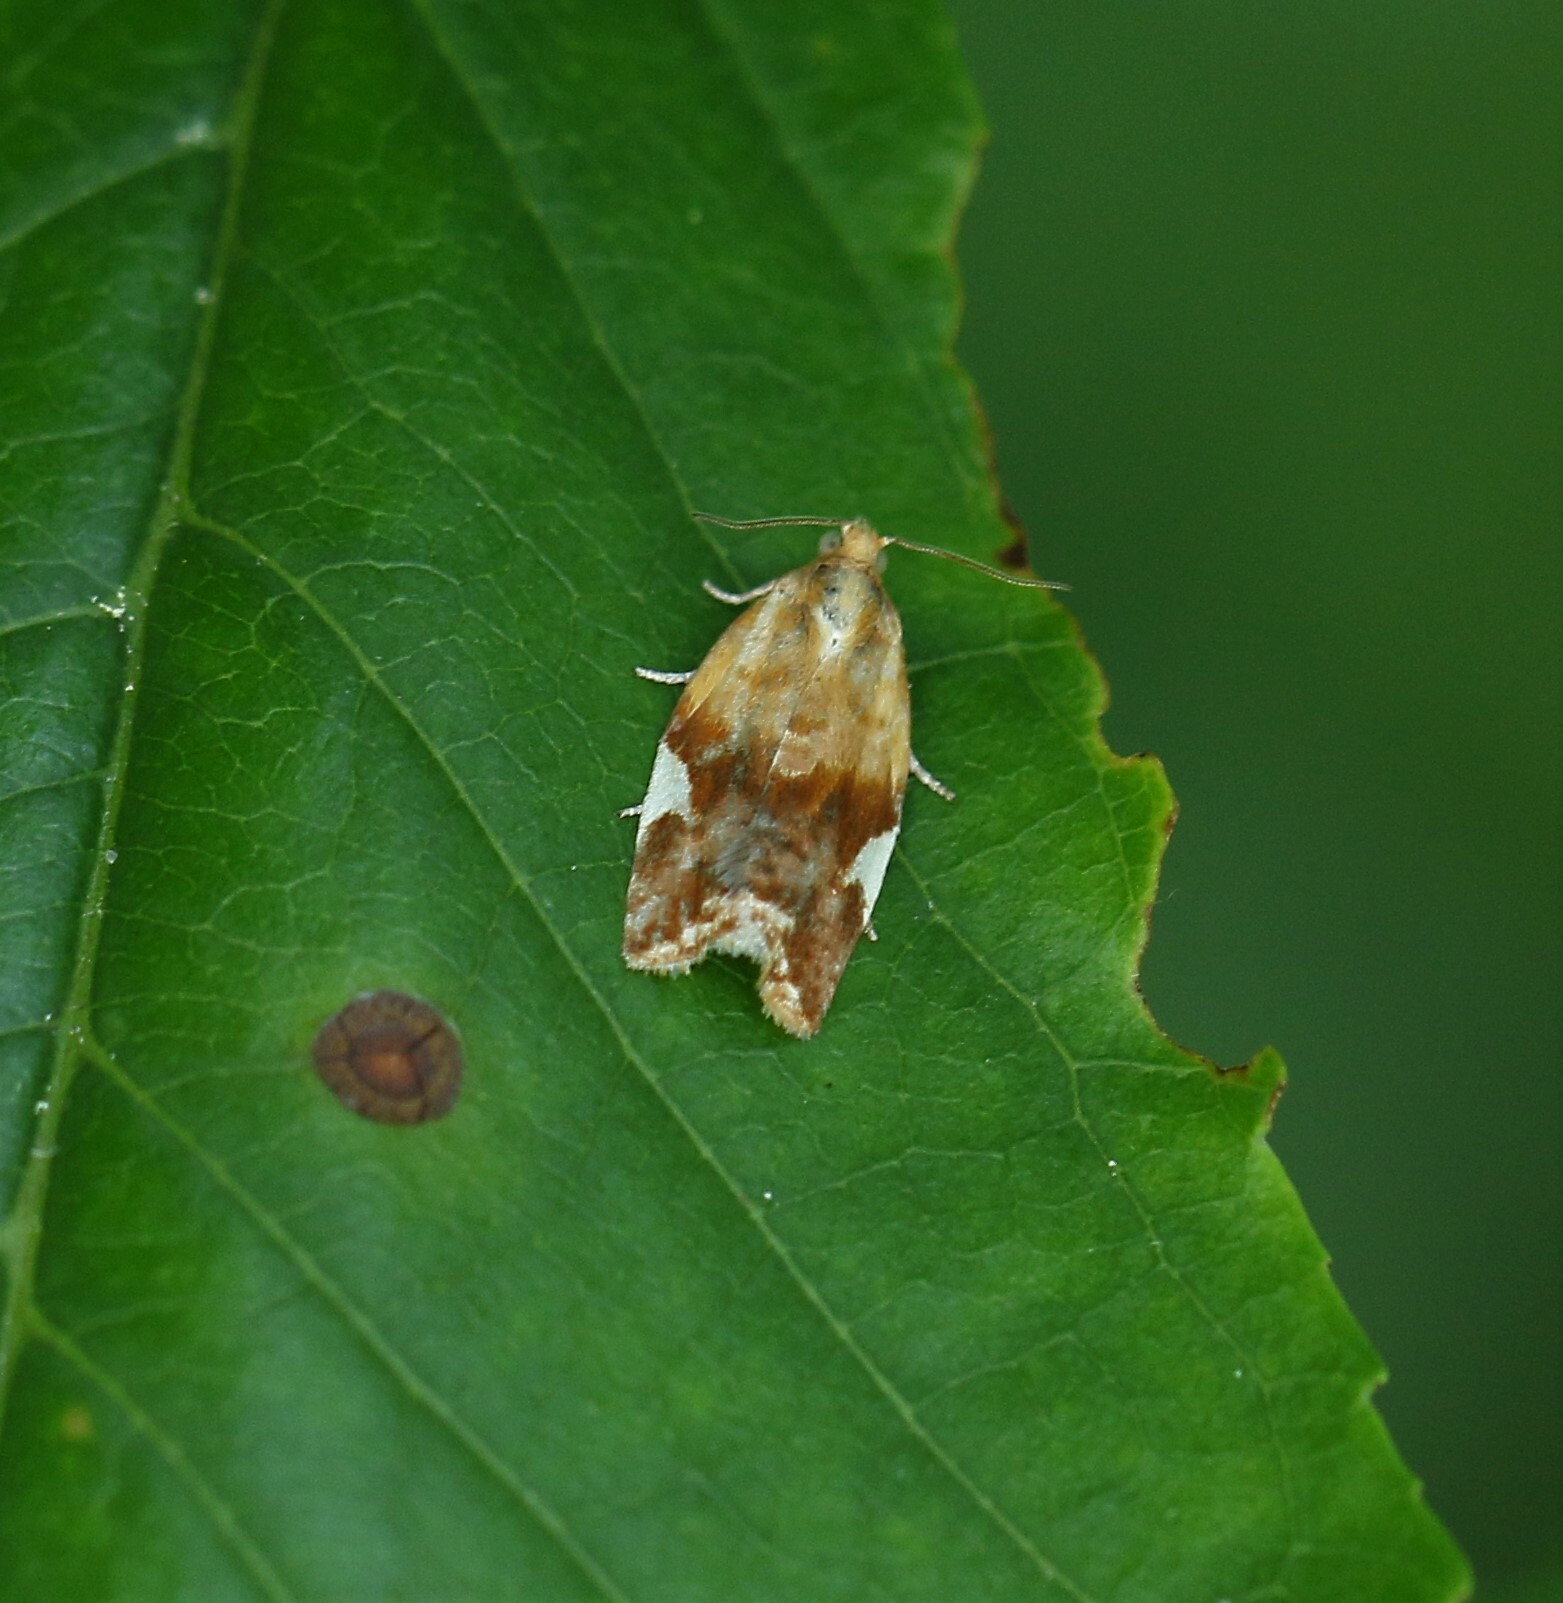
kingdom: Animalia
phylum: Arthropoda
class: Insecta
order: Lepidoptera
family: Tortricidae
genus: Clepsis
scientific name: Clepsis persicana
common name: White triangle tortrix
